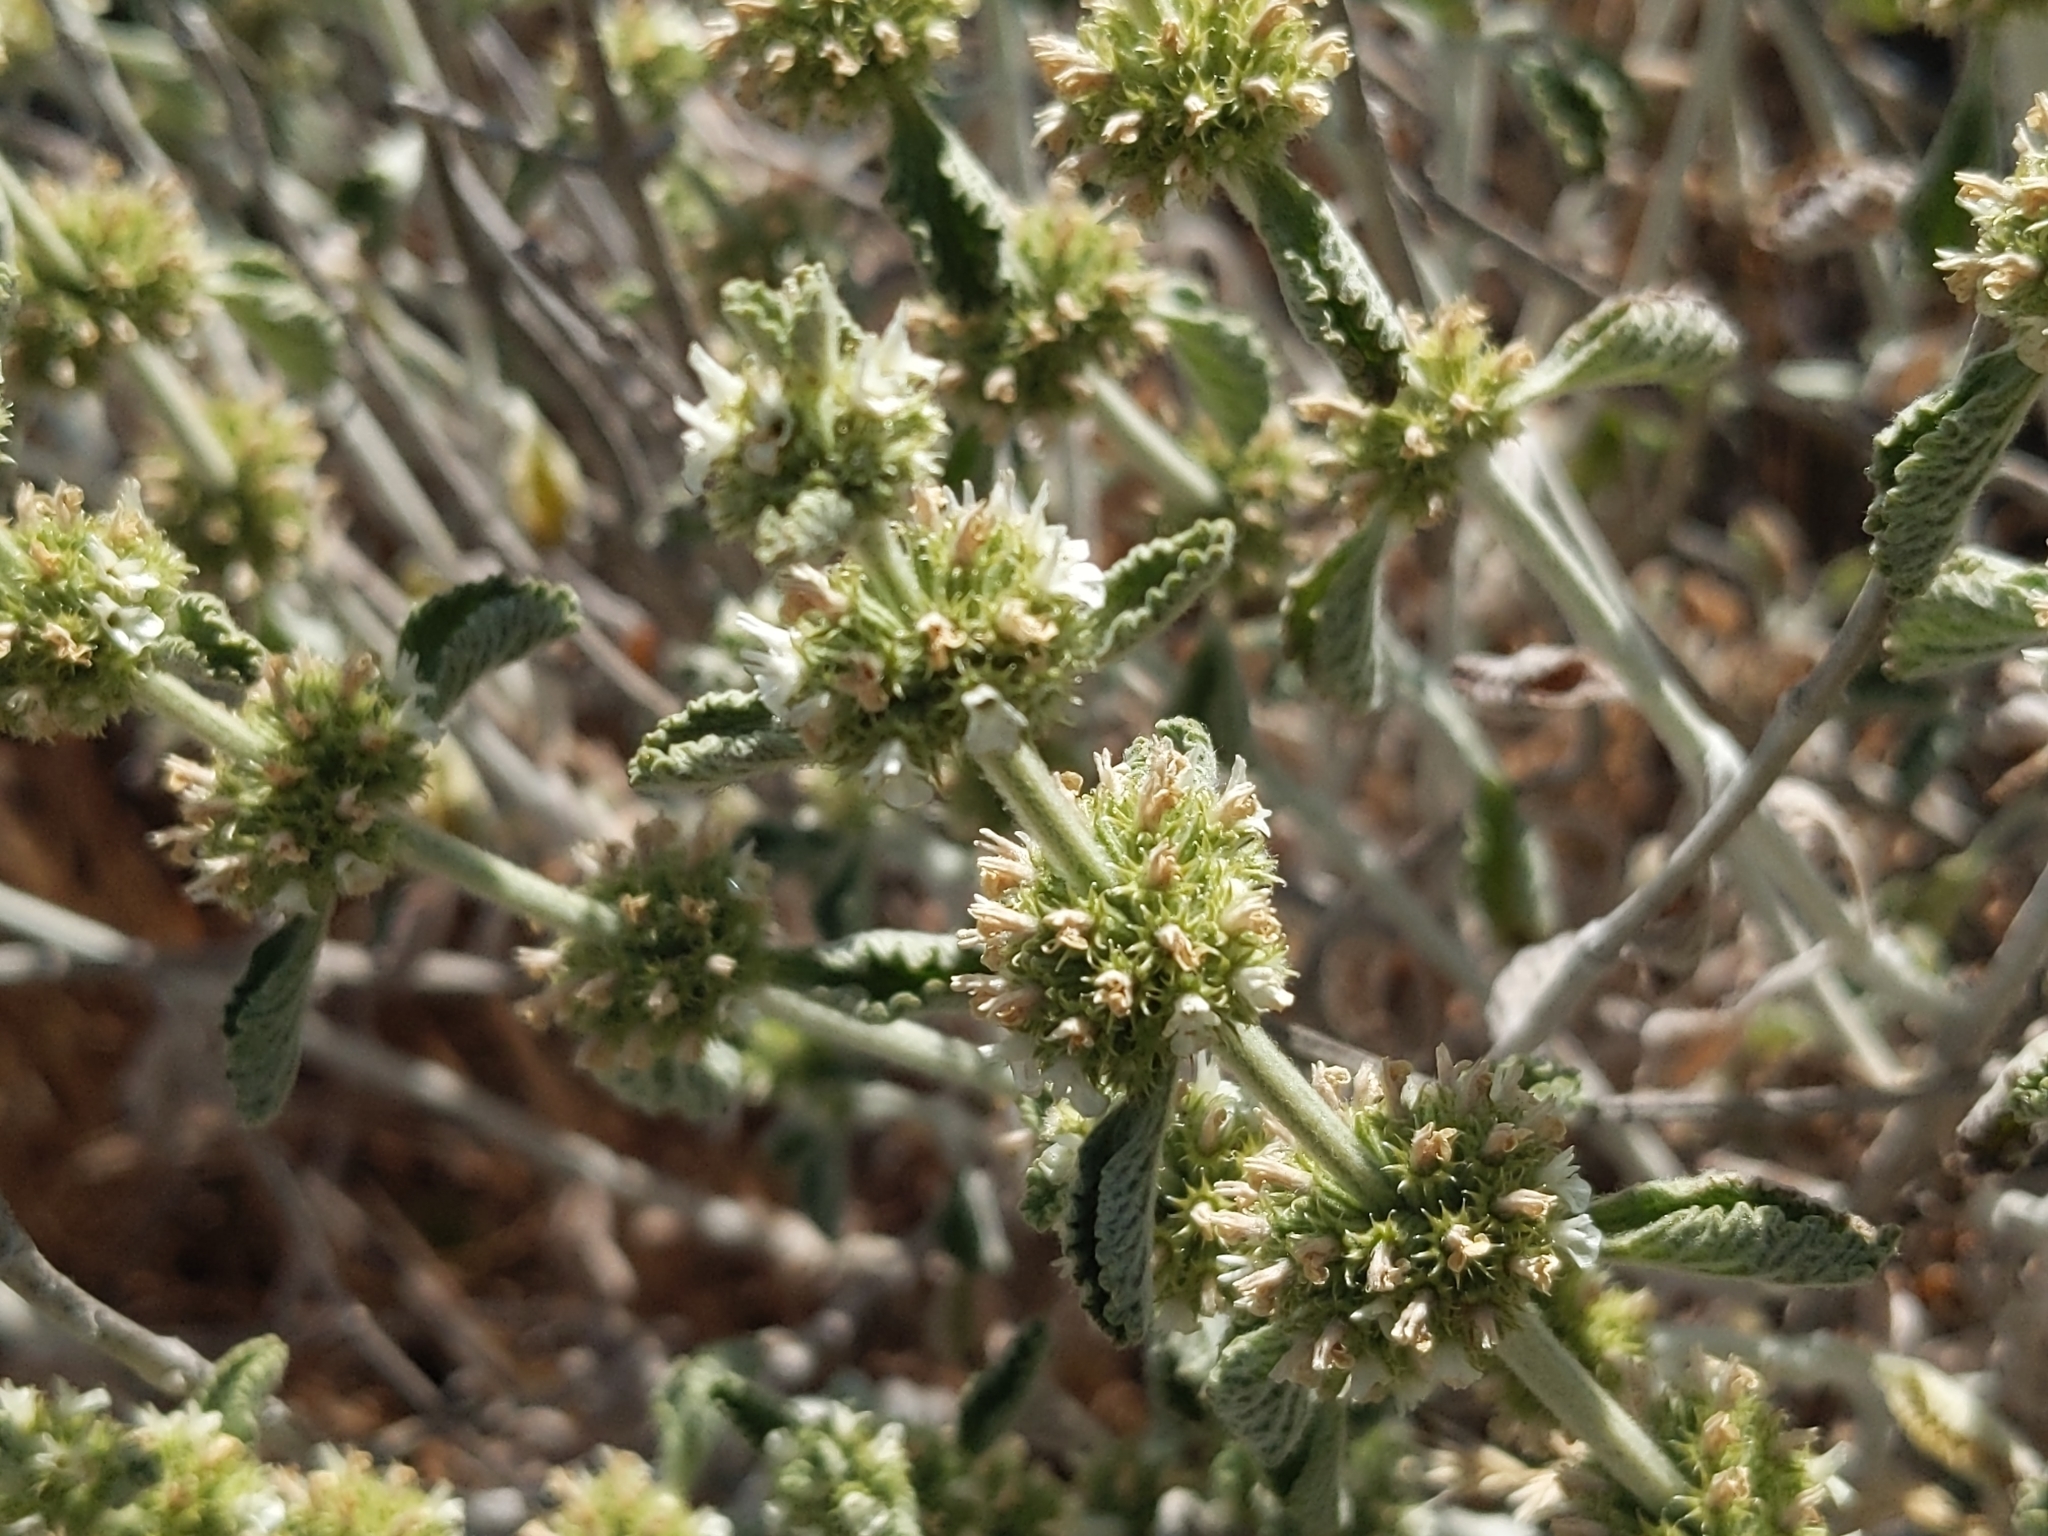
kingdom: Plantae
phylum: Tracheophyta
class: Magnoliopsida
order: Lamiales
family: Lamiaceae
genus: Marrubium
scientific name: Marrubium vulgare
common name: Horehound
